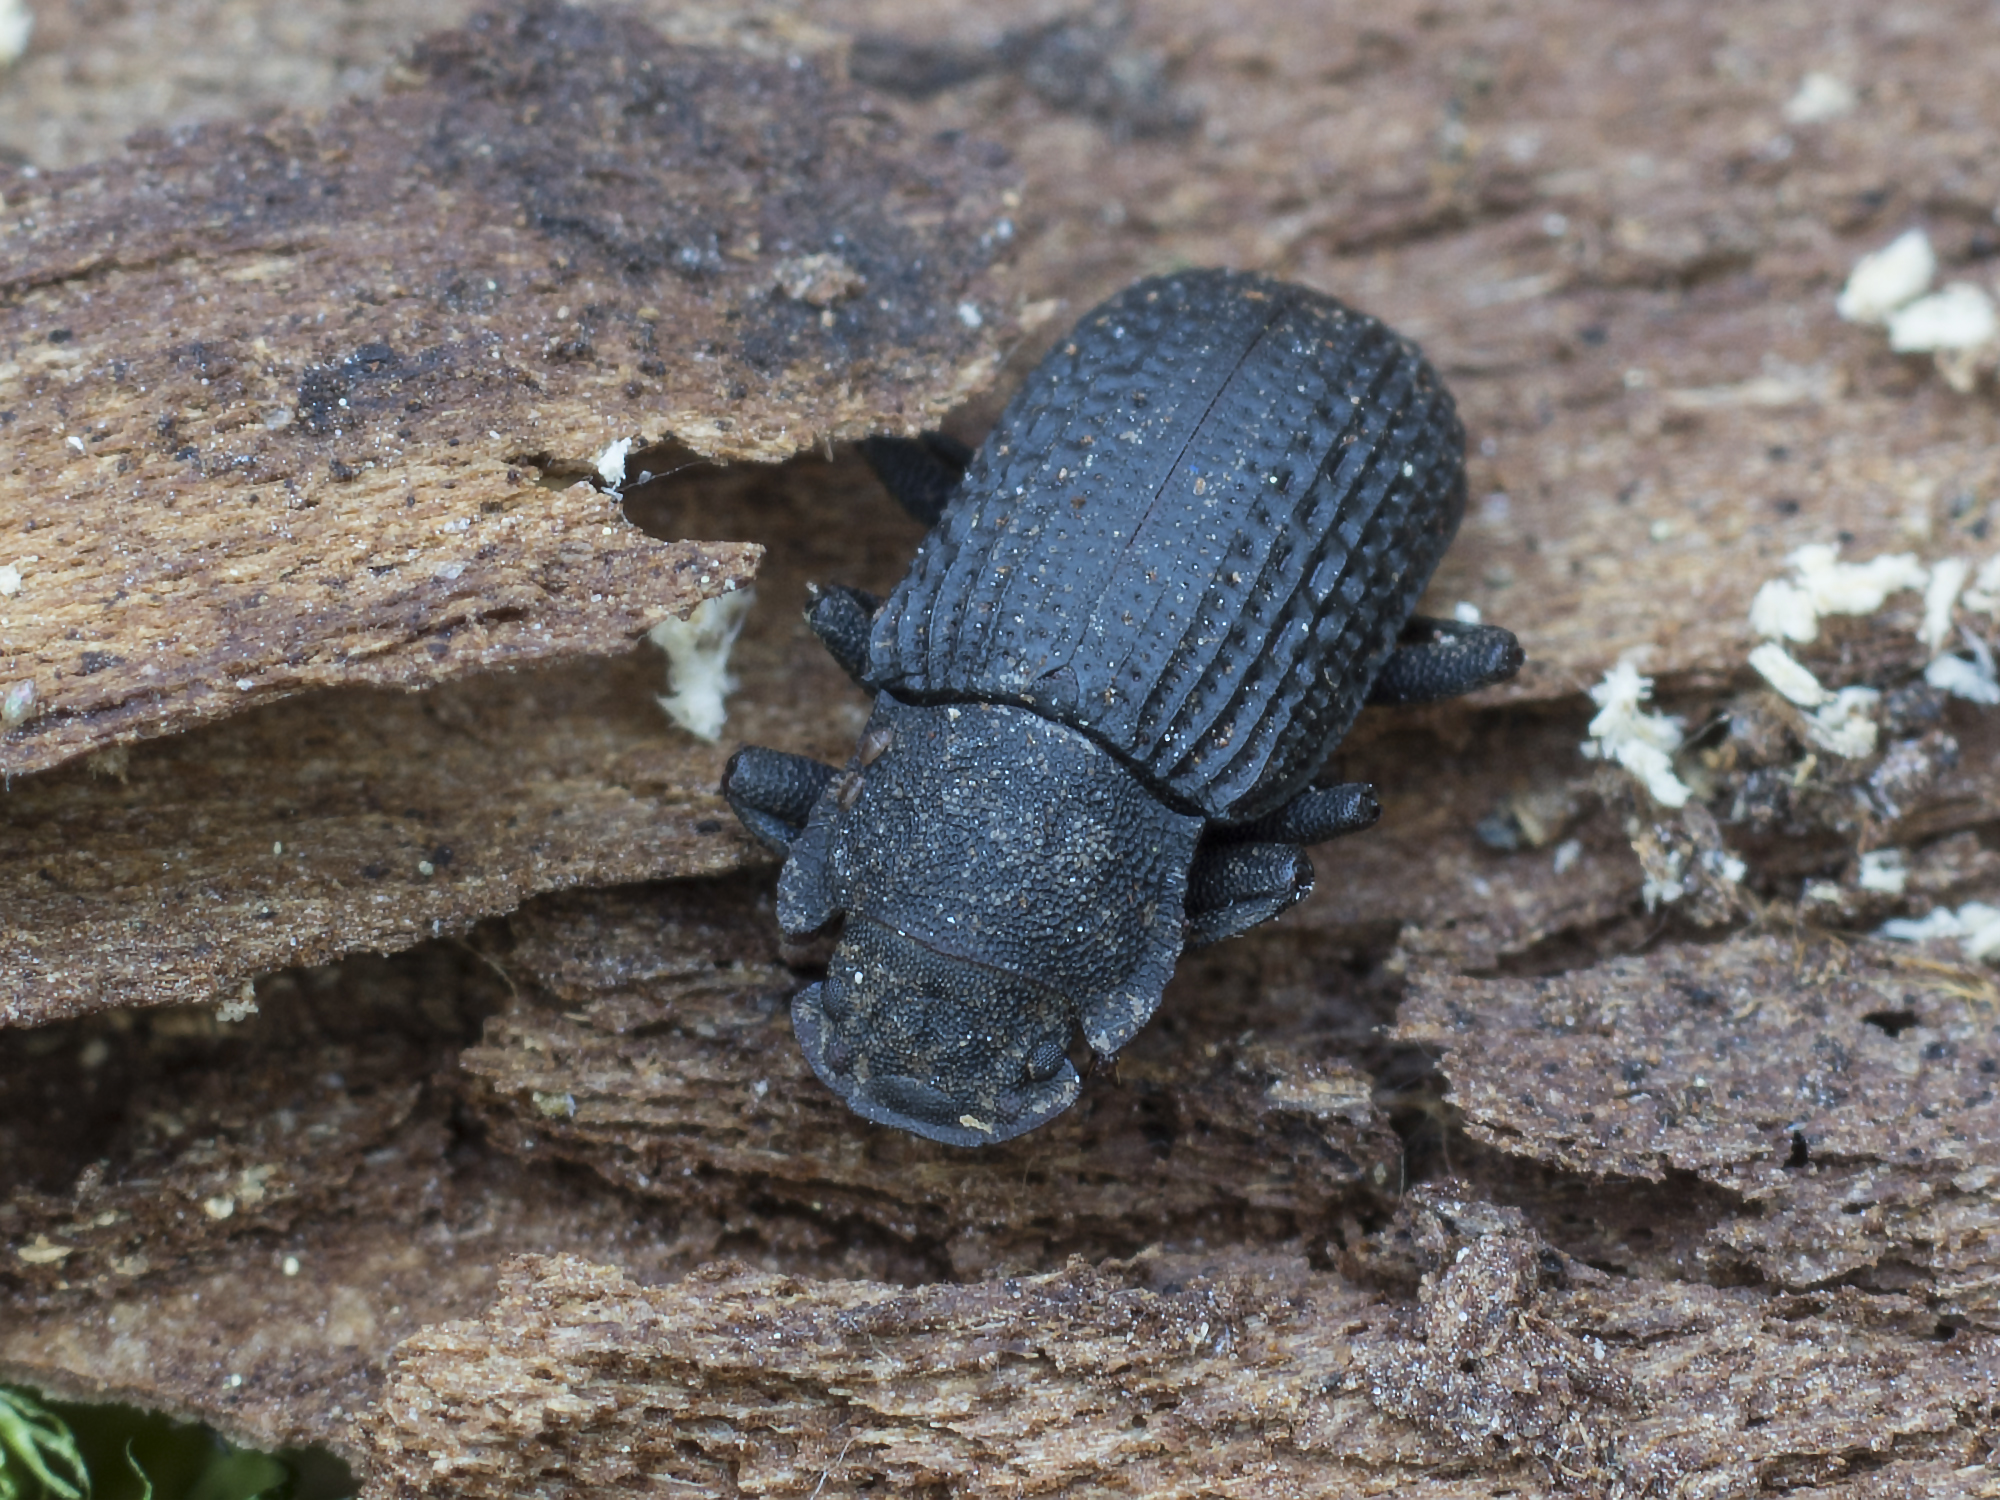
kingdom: Animalia
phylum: Arthropoda
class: Insecta
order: Coleoptera
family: Tenebrionidae
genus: Bolitophagus
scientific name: Bolitophagus reticulatus
